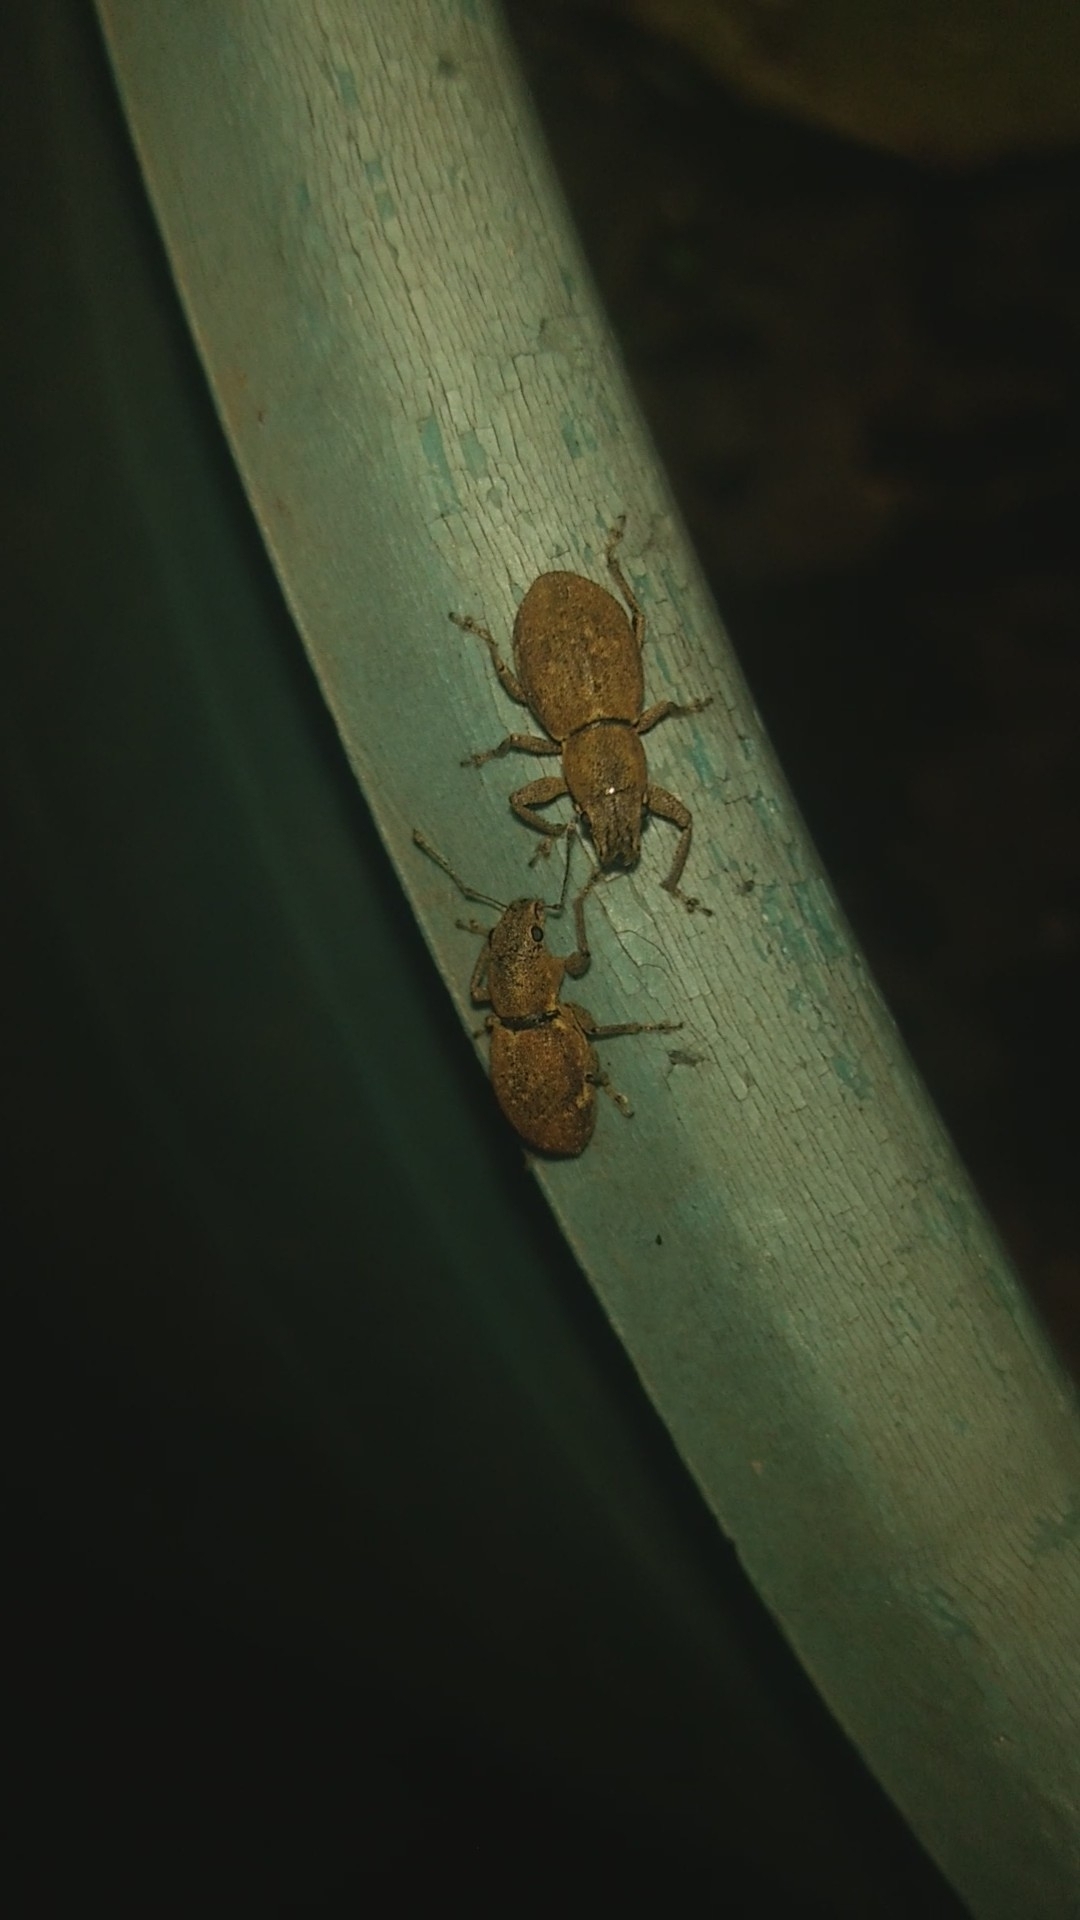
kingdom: Animalia
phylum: Arthropoda
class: Insecta
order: Coleoptera
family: Curculionidae
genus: Naupactus
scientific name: Naupactus cervinus
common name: Fuller rose beetle
